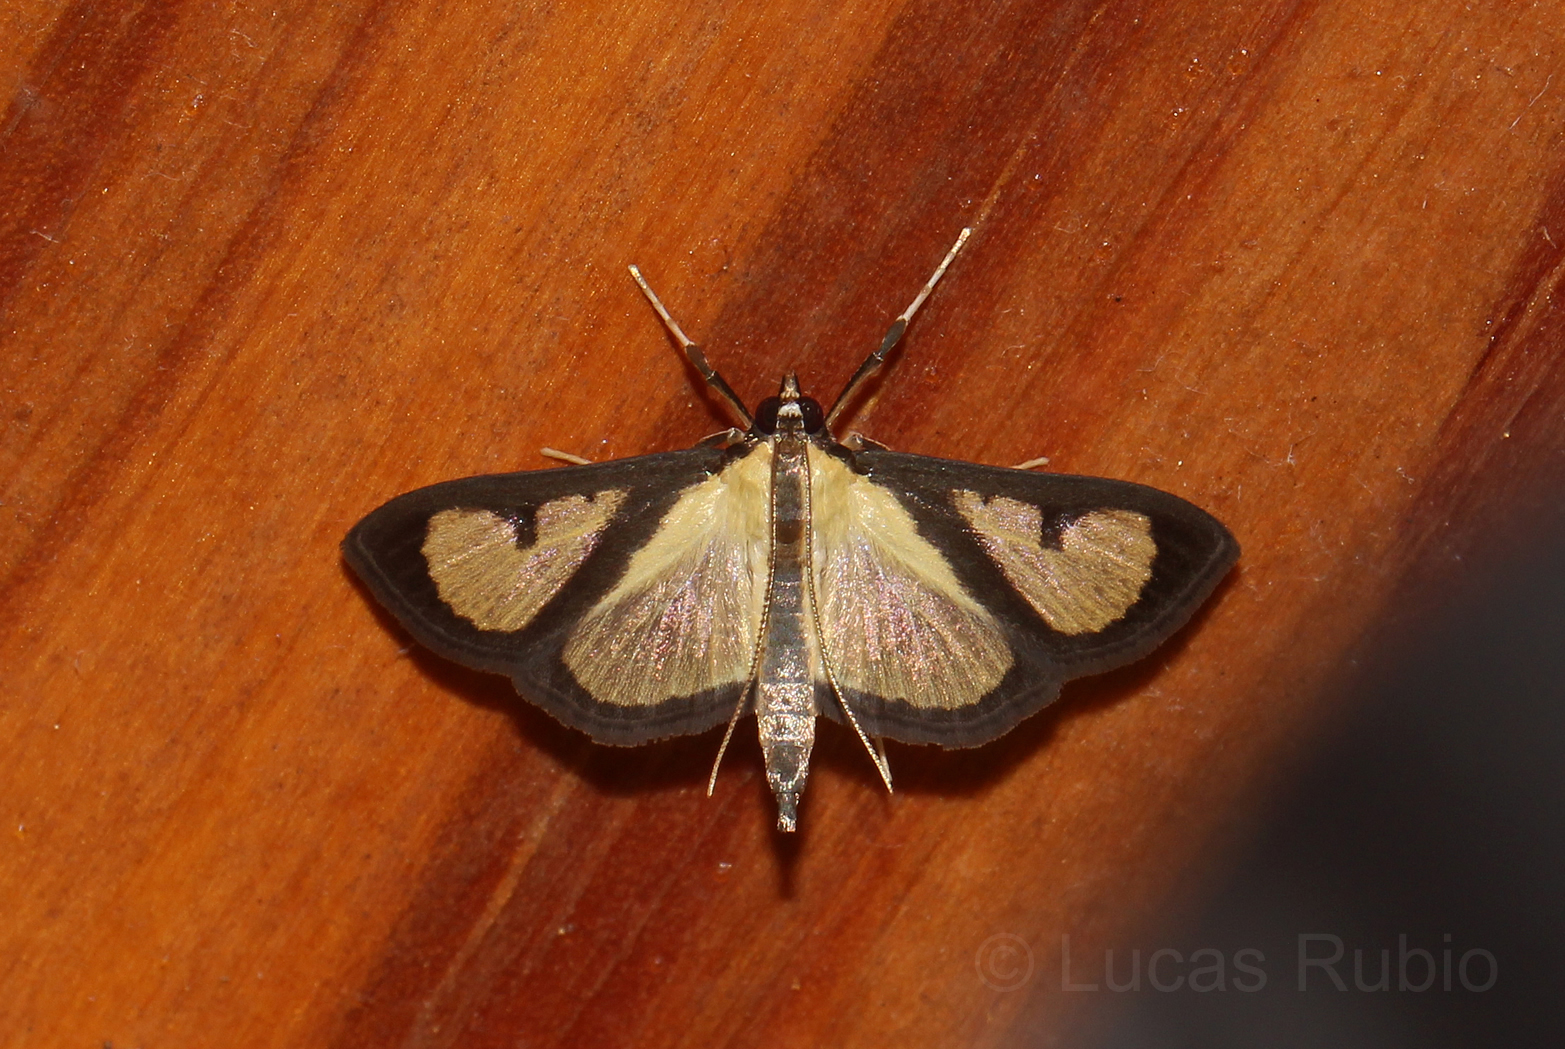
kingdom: Animalia
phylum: Arthropoda
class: Insecta
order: Lepidoptera
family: Crambidae
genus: Hyalea
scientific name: Hyalea pallidalis
